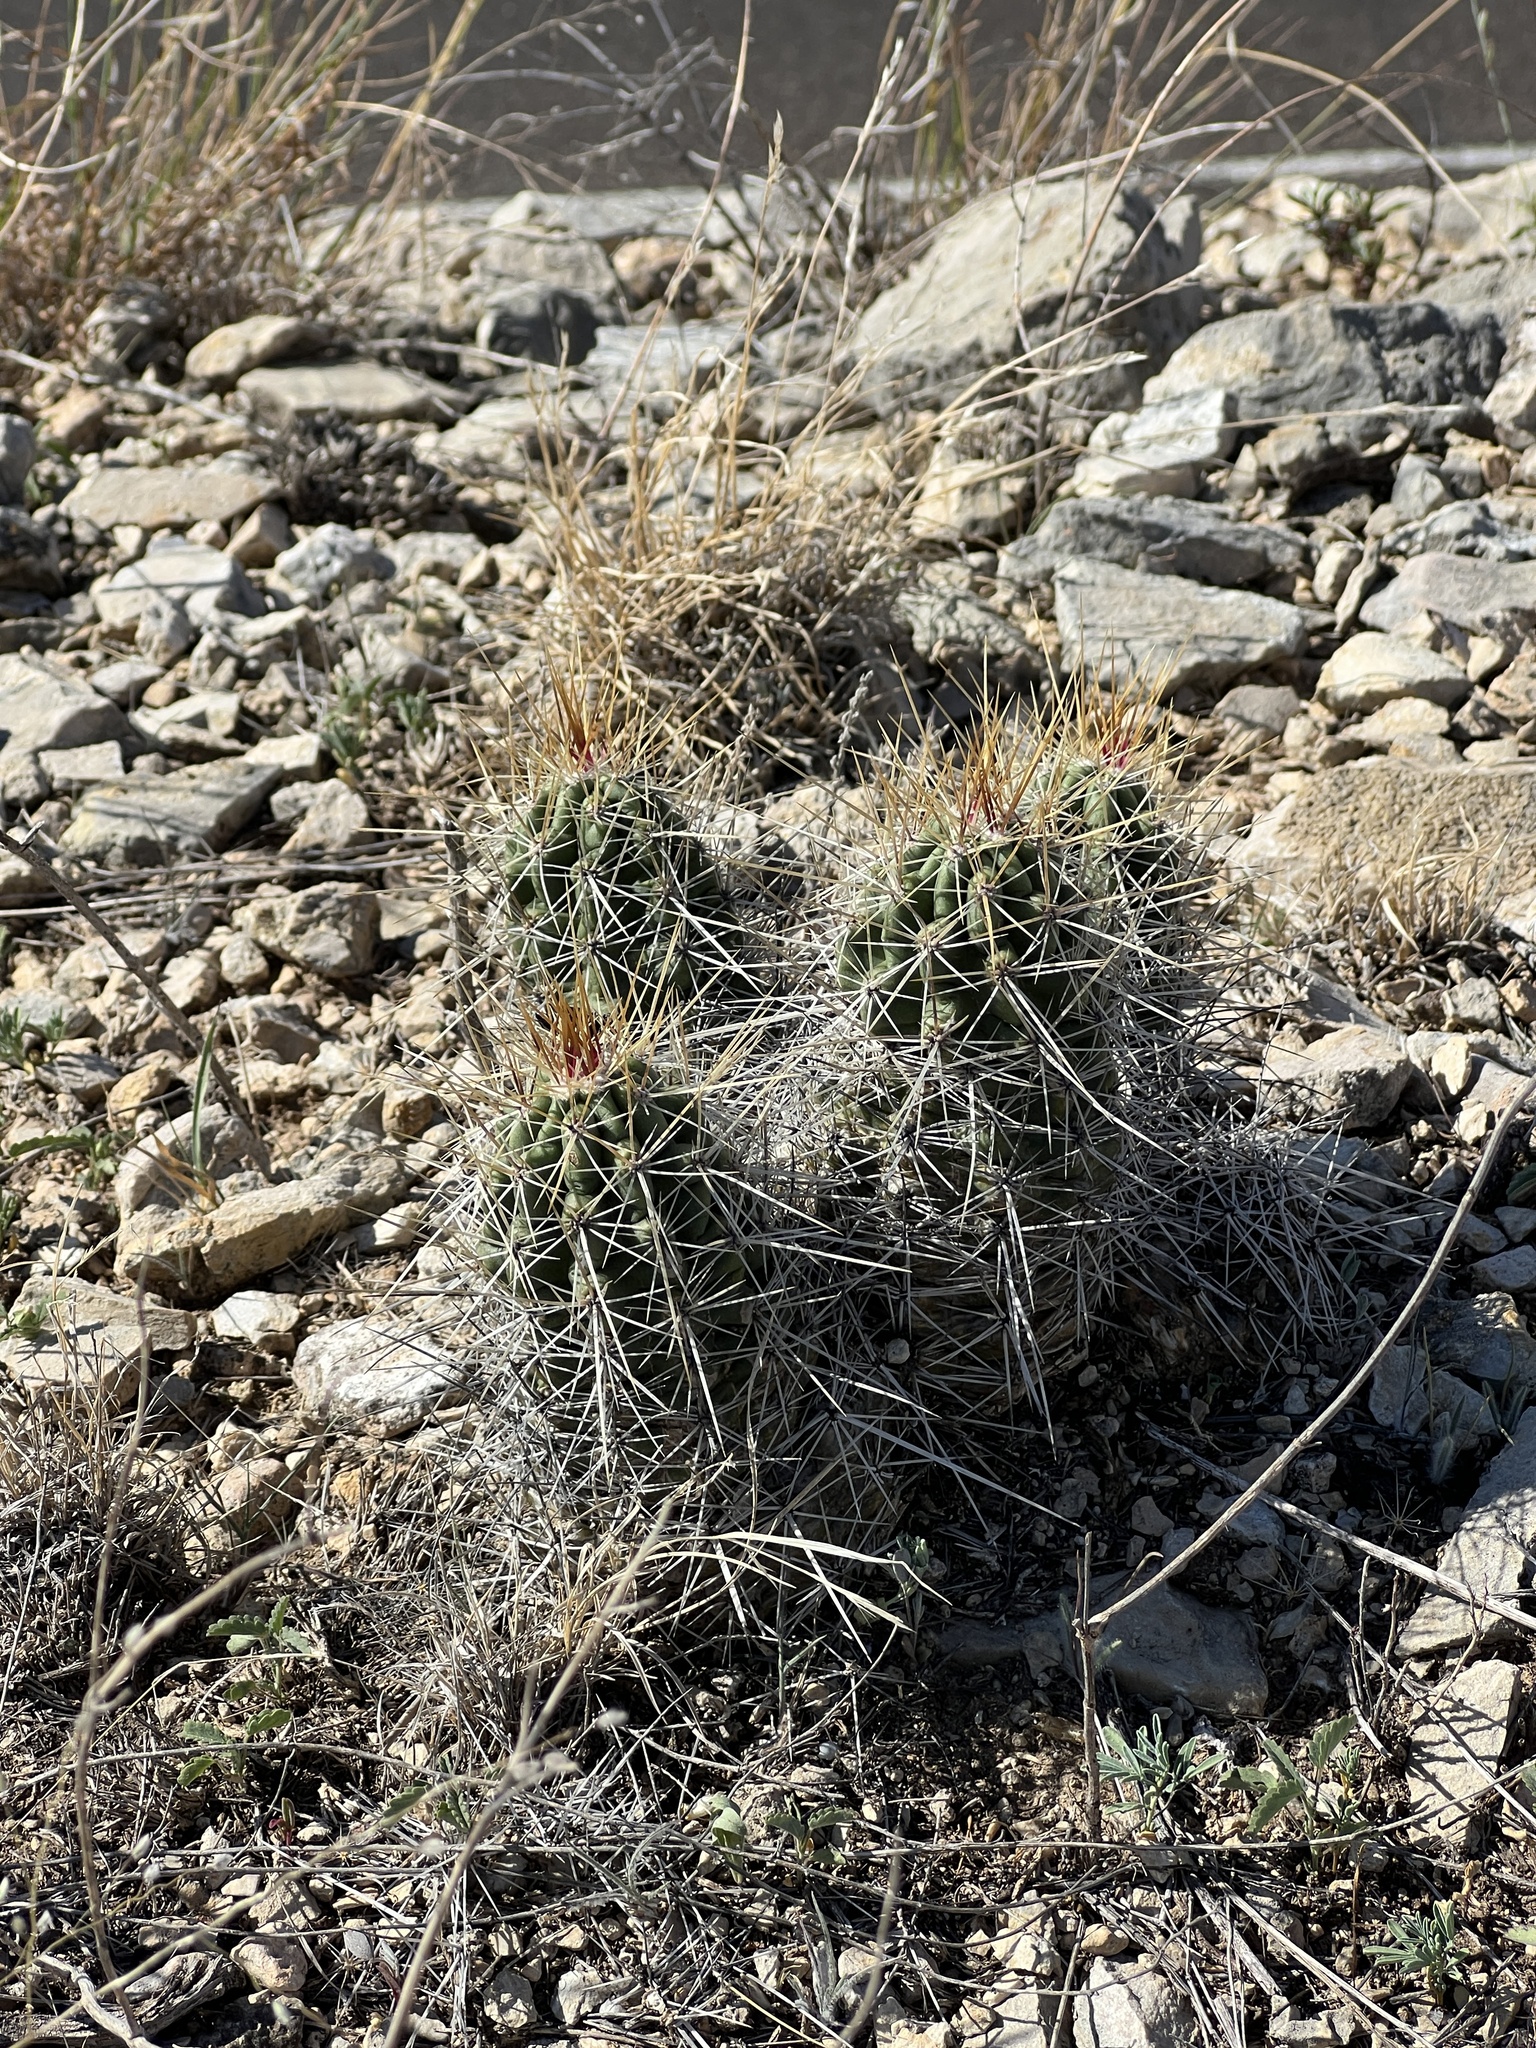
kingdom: Plantae
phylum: Tracheophyta
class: Magnoliopsida
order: Caryophyllales
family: Cactaceae
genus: Echinocereus
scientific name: Echinocereus enneacanthus
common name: Pitaya
